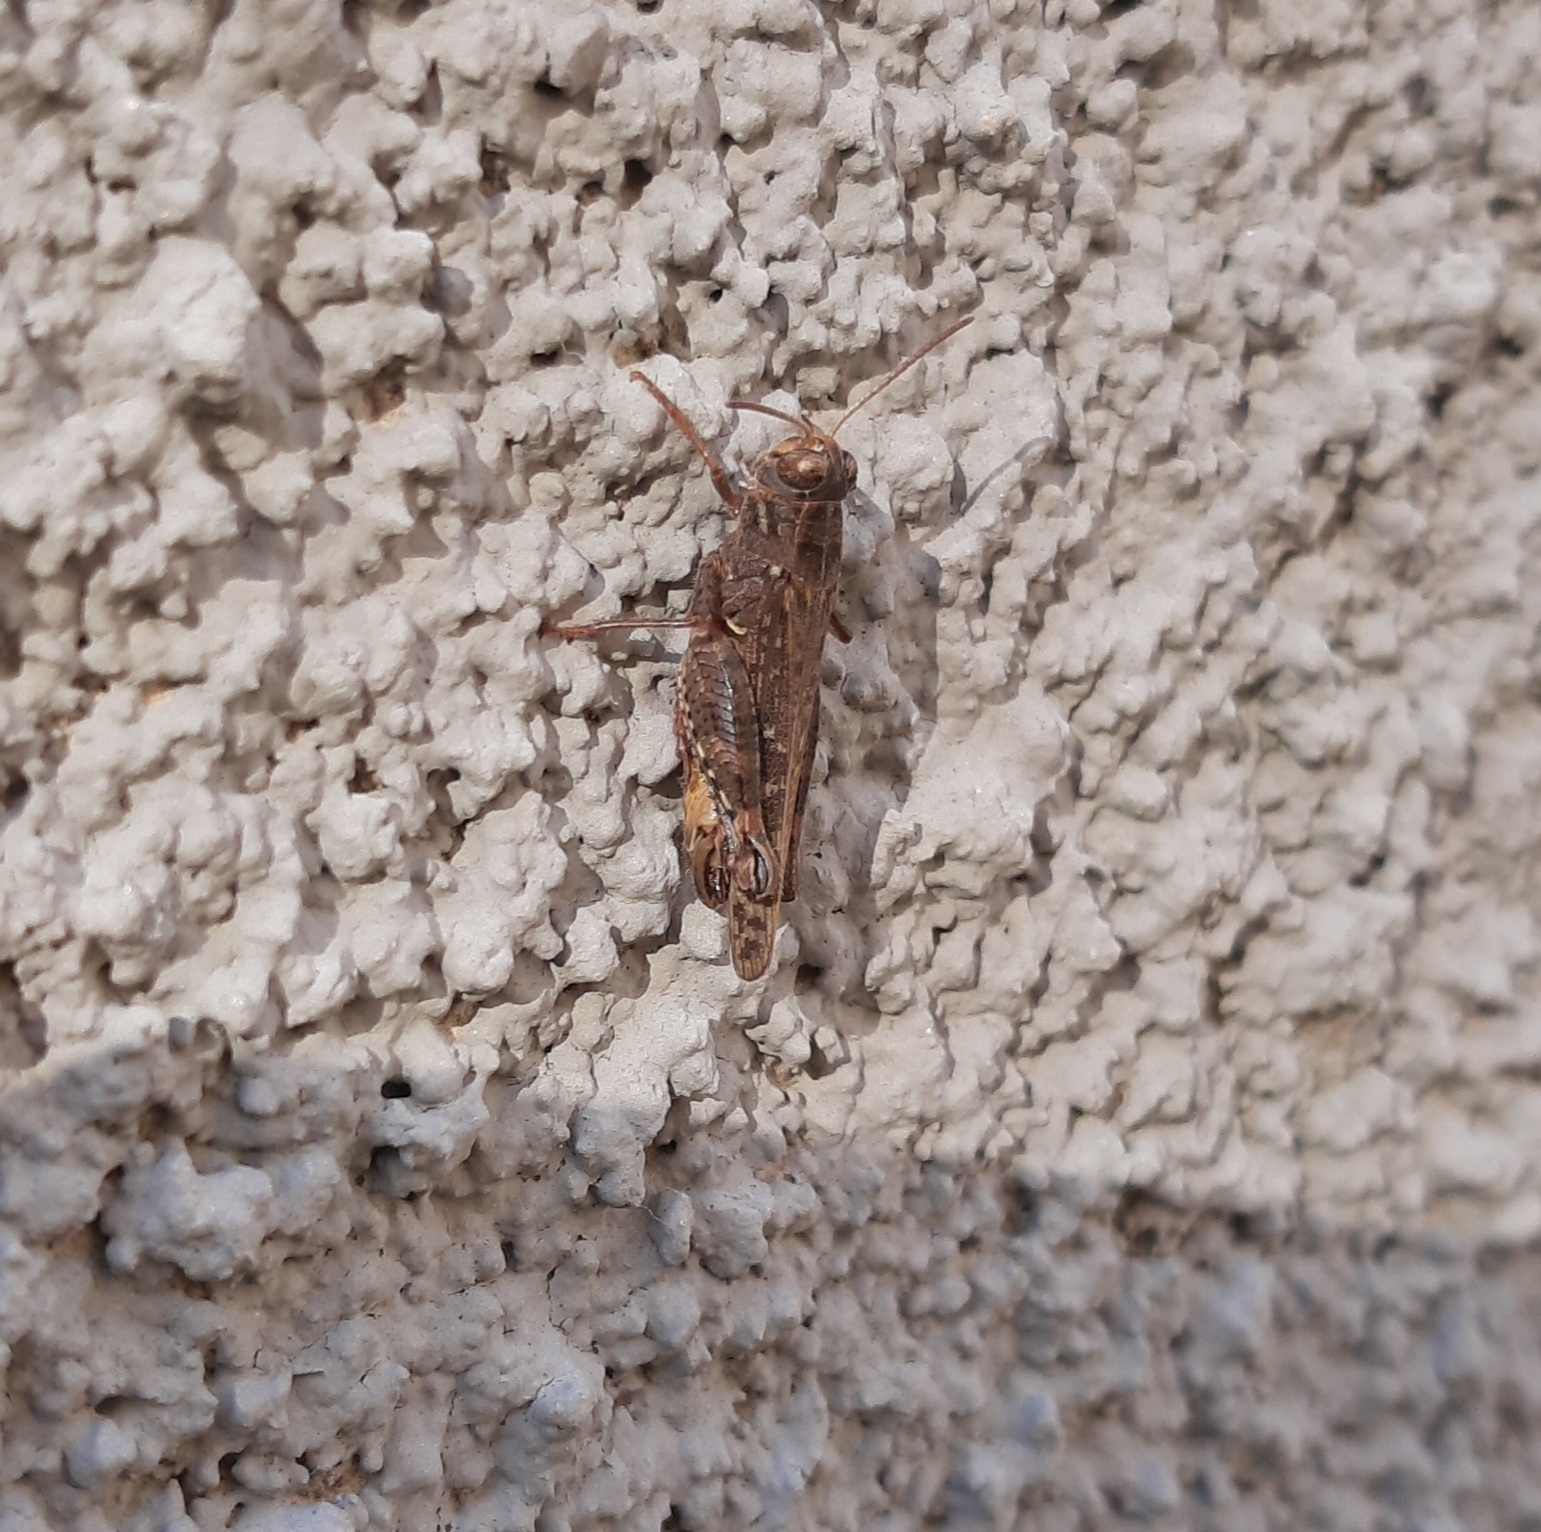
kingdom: Animalia
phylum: Arthropoda
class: Insecta
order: Orthoptera
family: Acrididae
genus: Calliptamus
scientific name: Calliptamus italicus
